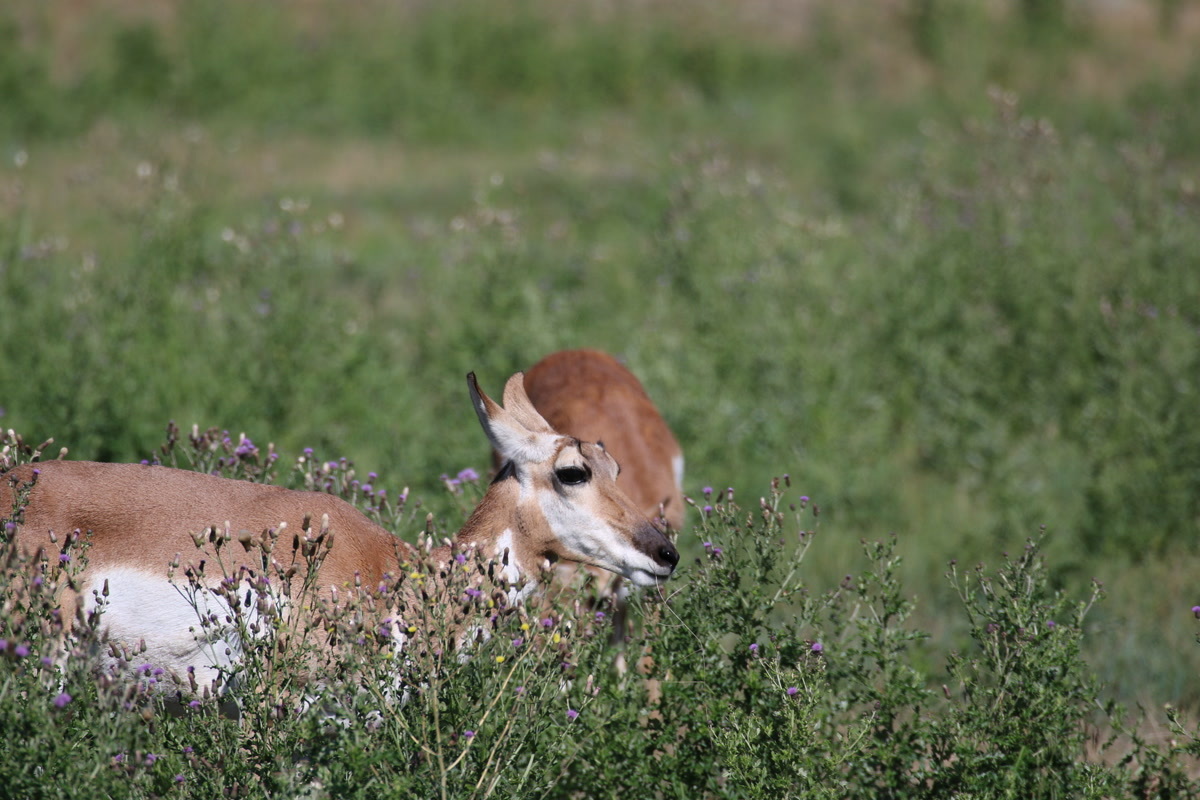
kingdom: Animalia
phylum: Chordata
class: Mammalia
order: Artiodactyla
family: Antilocapridae
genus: Antilocapra
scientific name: Antilocapra americana
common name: Pronghorn
